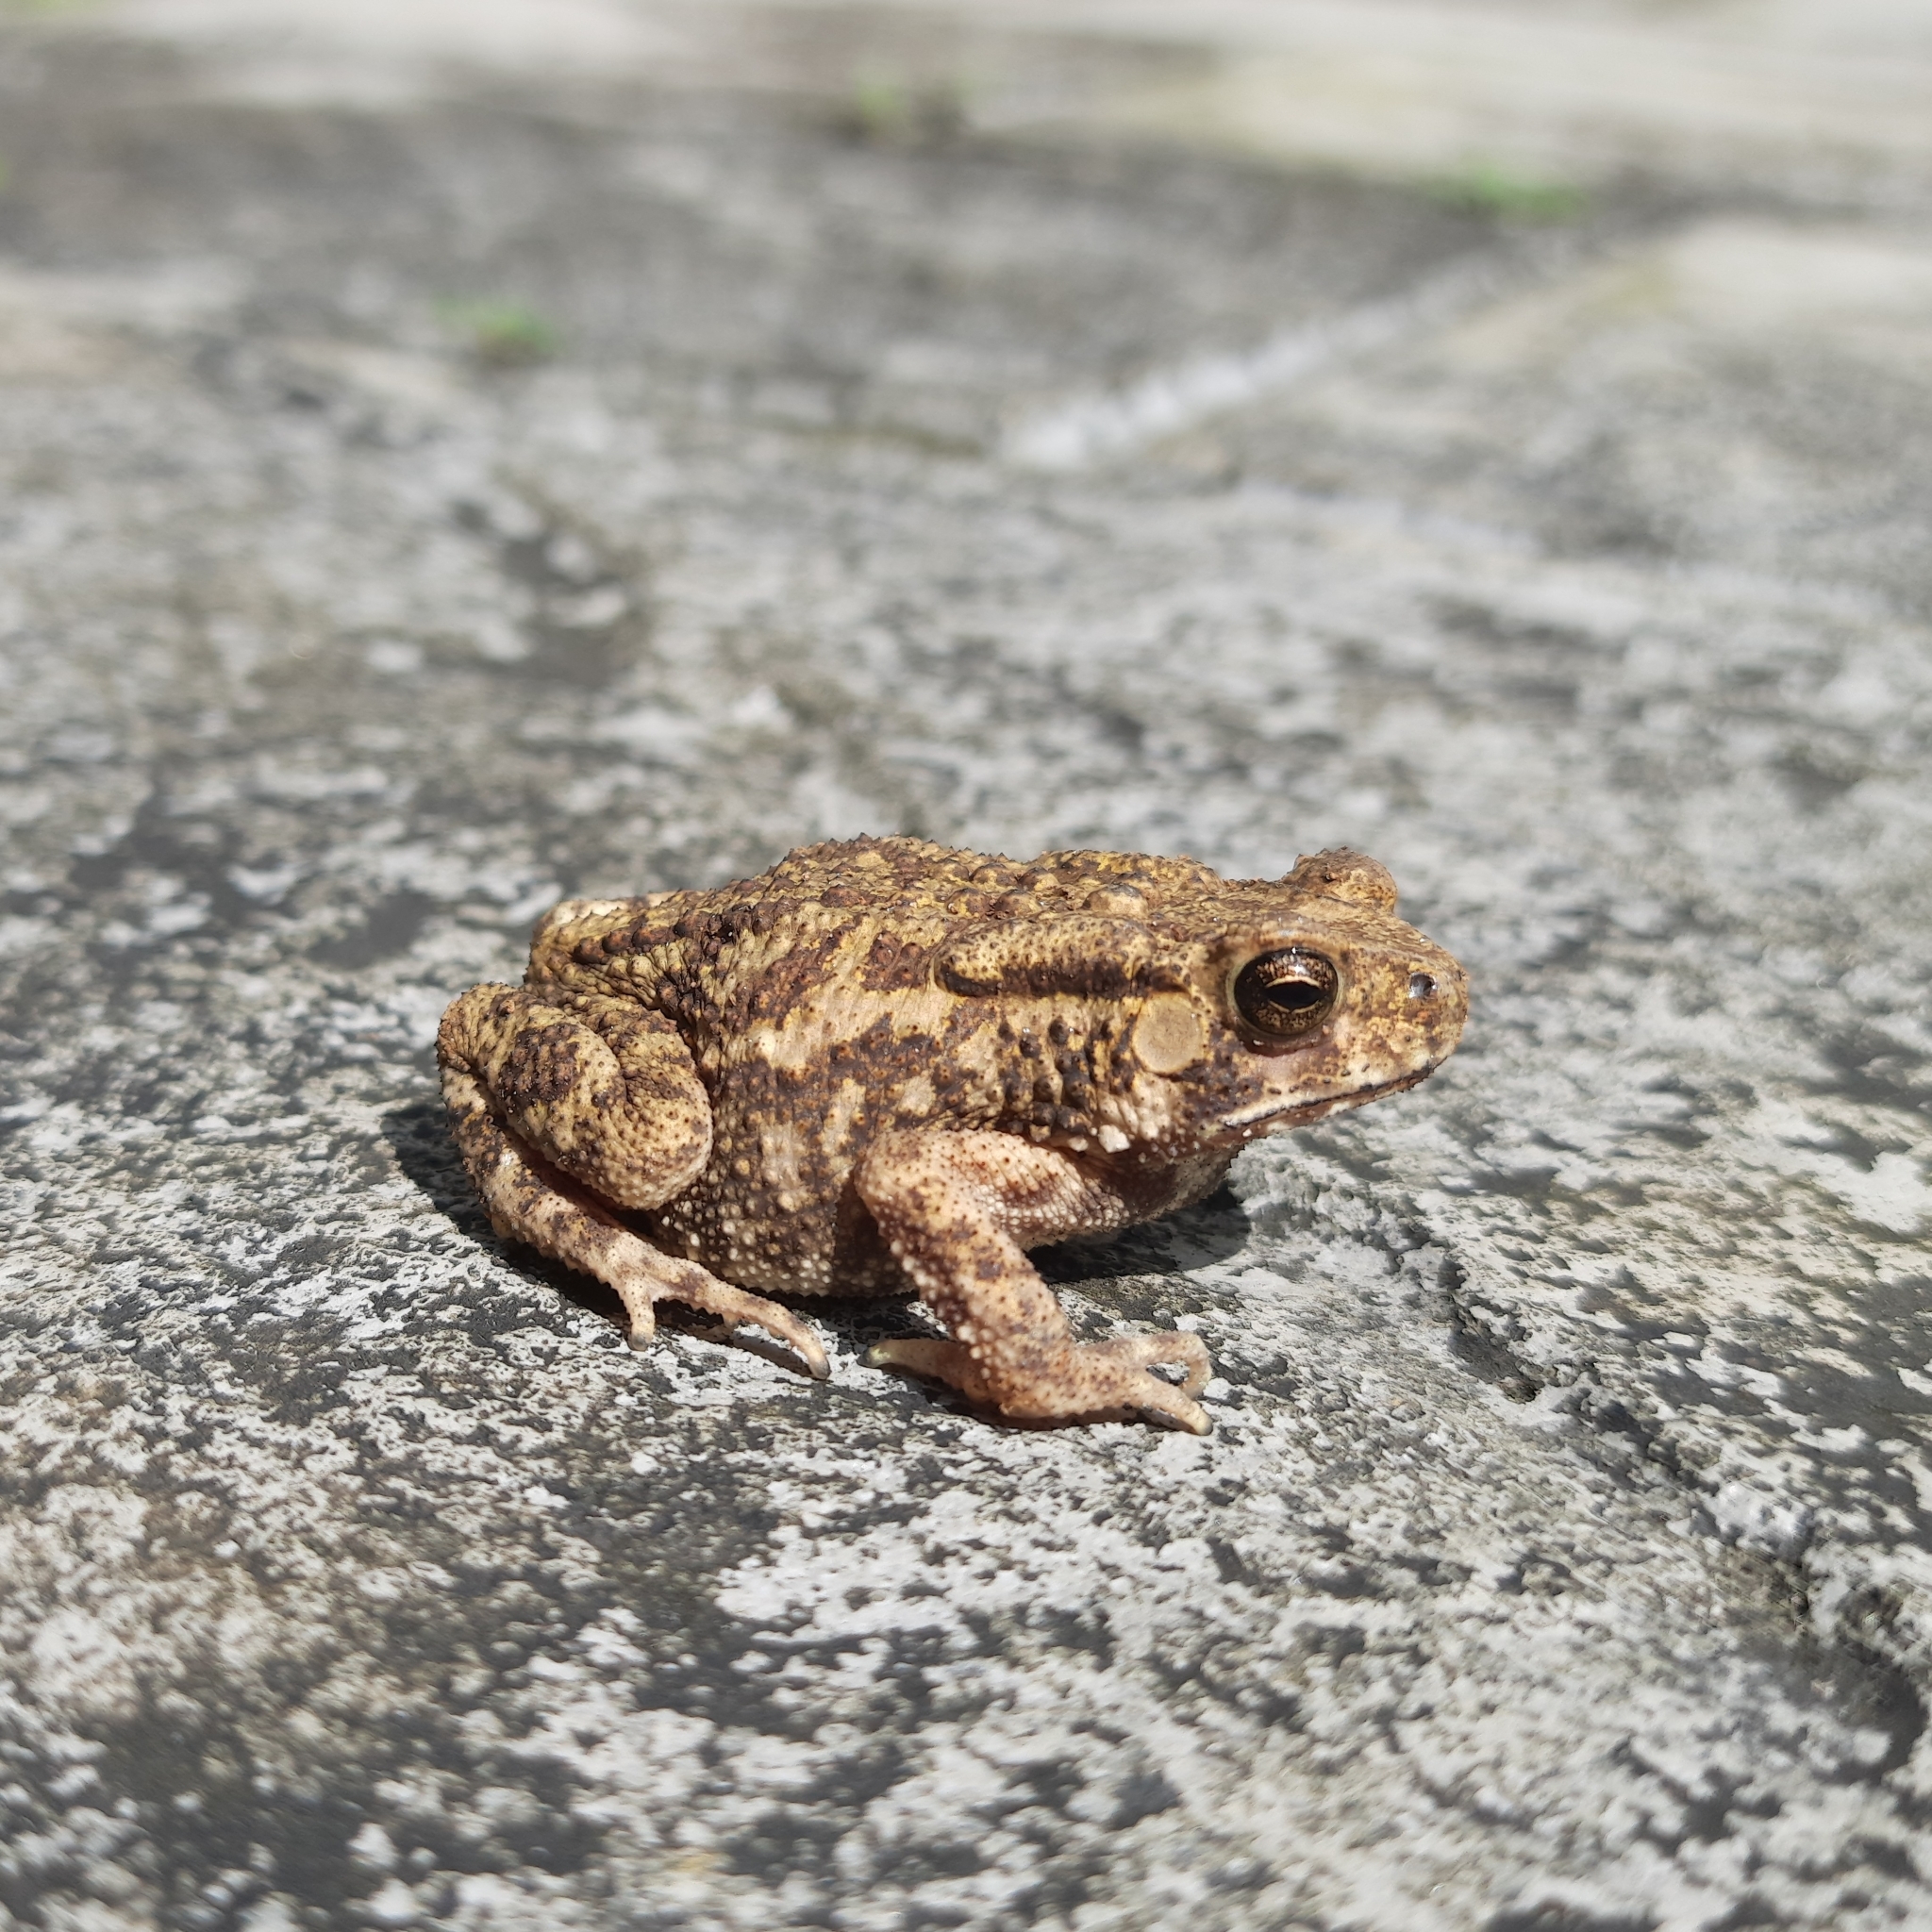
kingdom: Animalia
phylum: Chordata
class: Amphibia
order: Anura
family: Bufonidae
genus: Duttaphrynus
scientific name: Duttaphrynus melanostictus
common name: Common sunda toad
